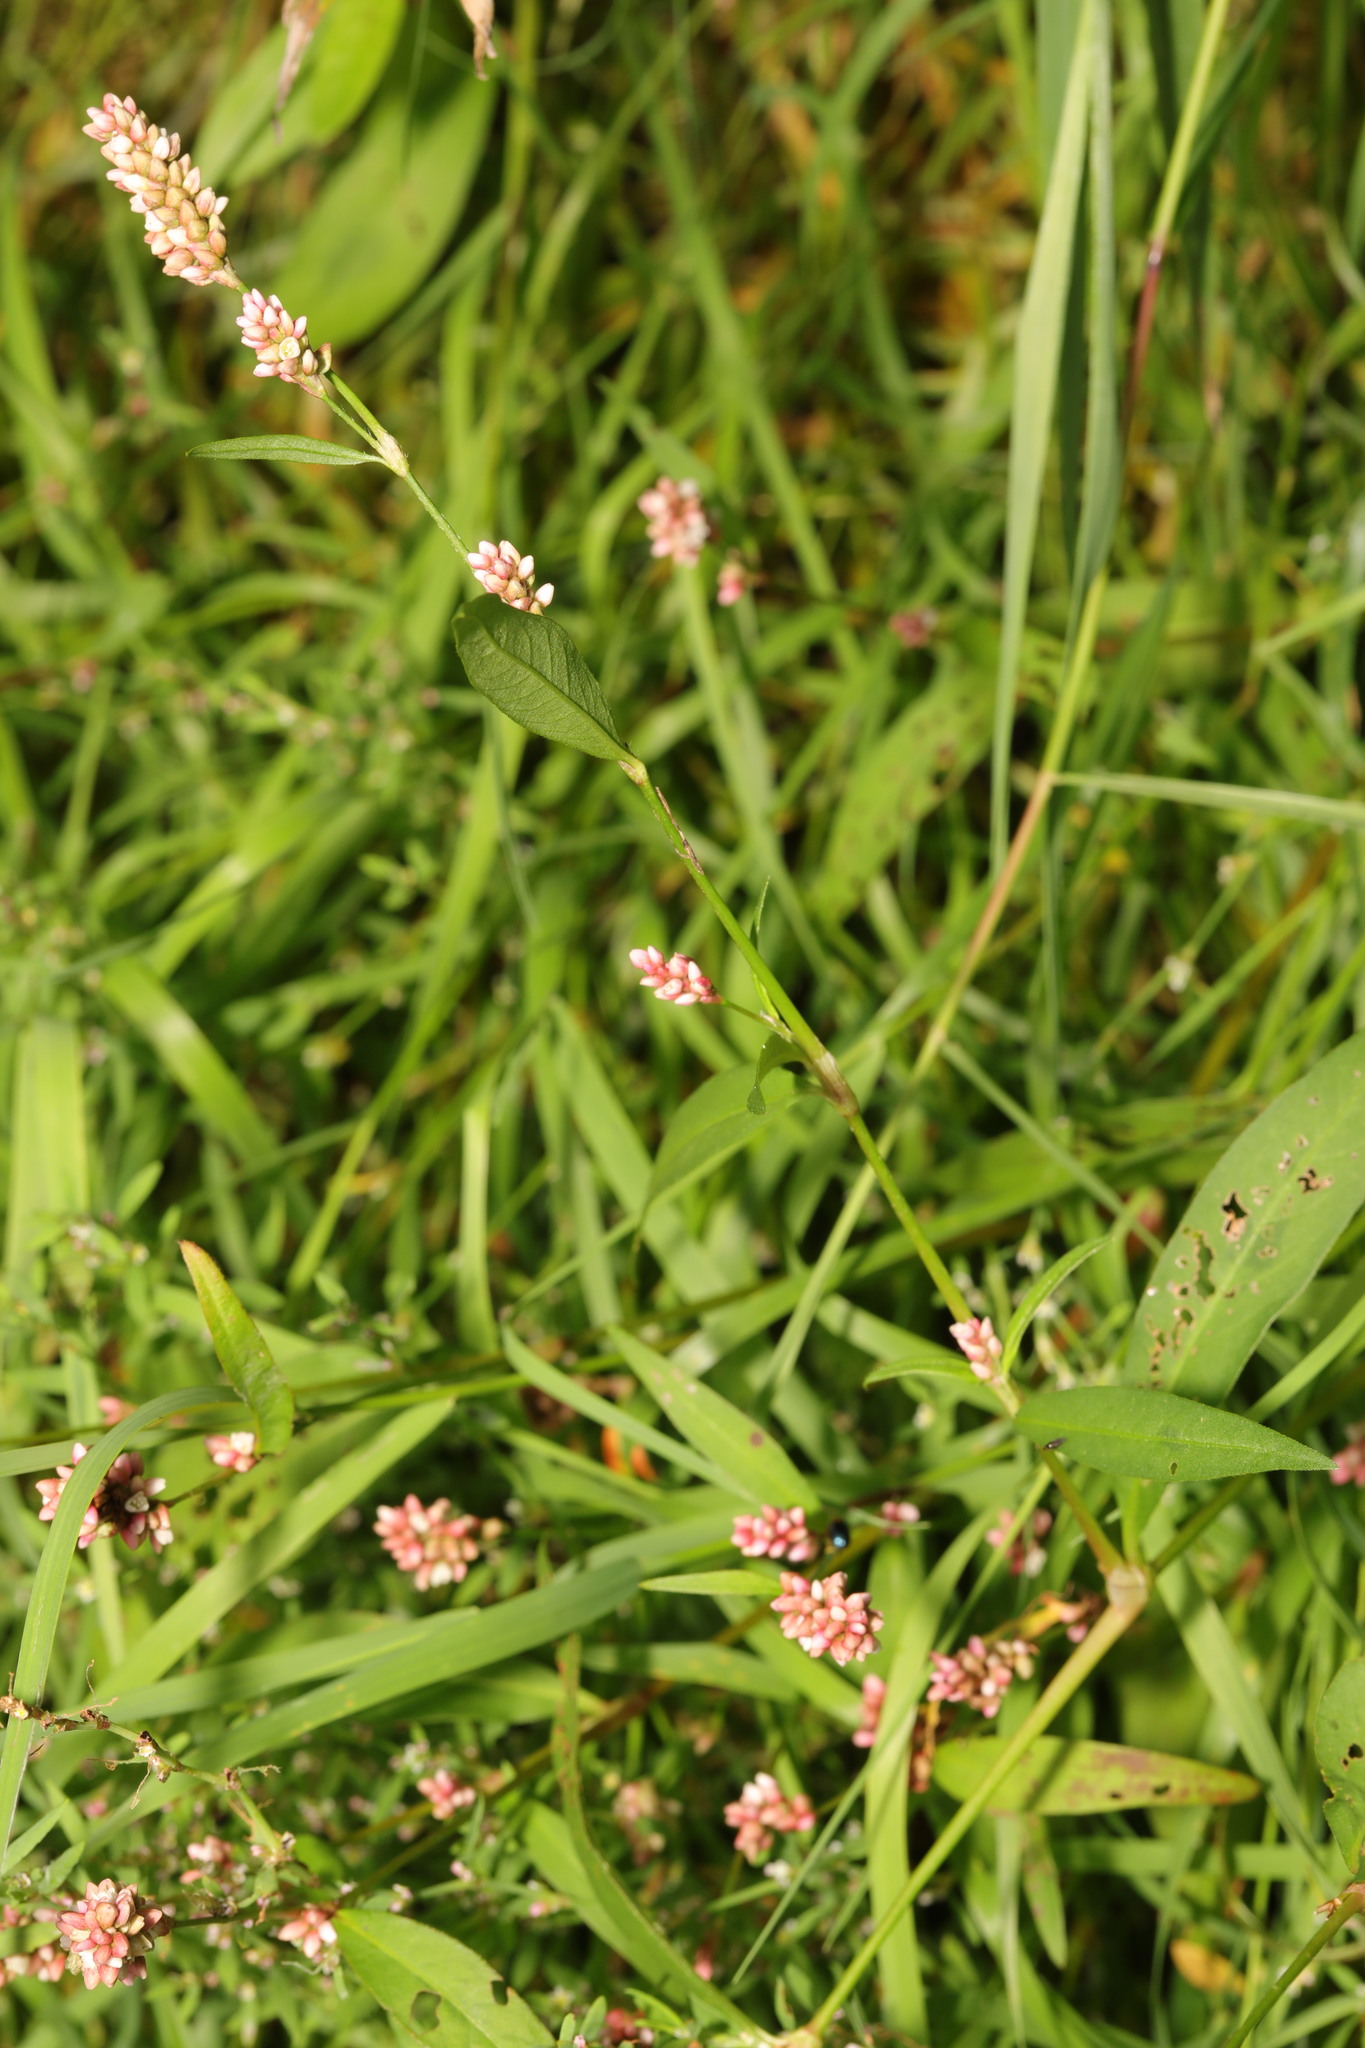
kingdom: Plantae
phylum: Tracheophyta
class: Magnoliopsida
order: Caryophyllales
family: Polygonaceae
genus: Persicaria
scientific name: Persicaria maculosa
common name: Redshank
